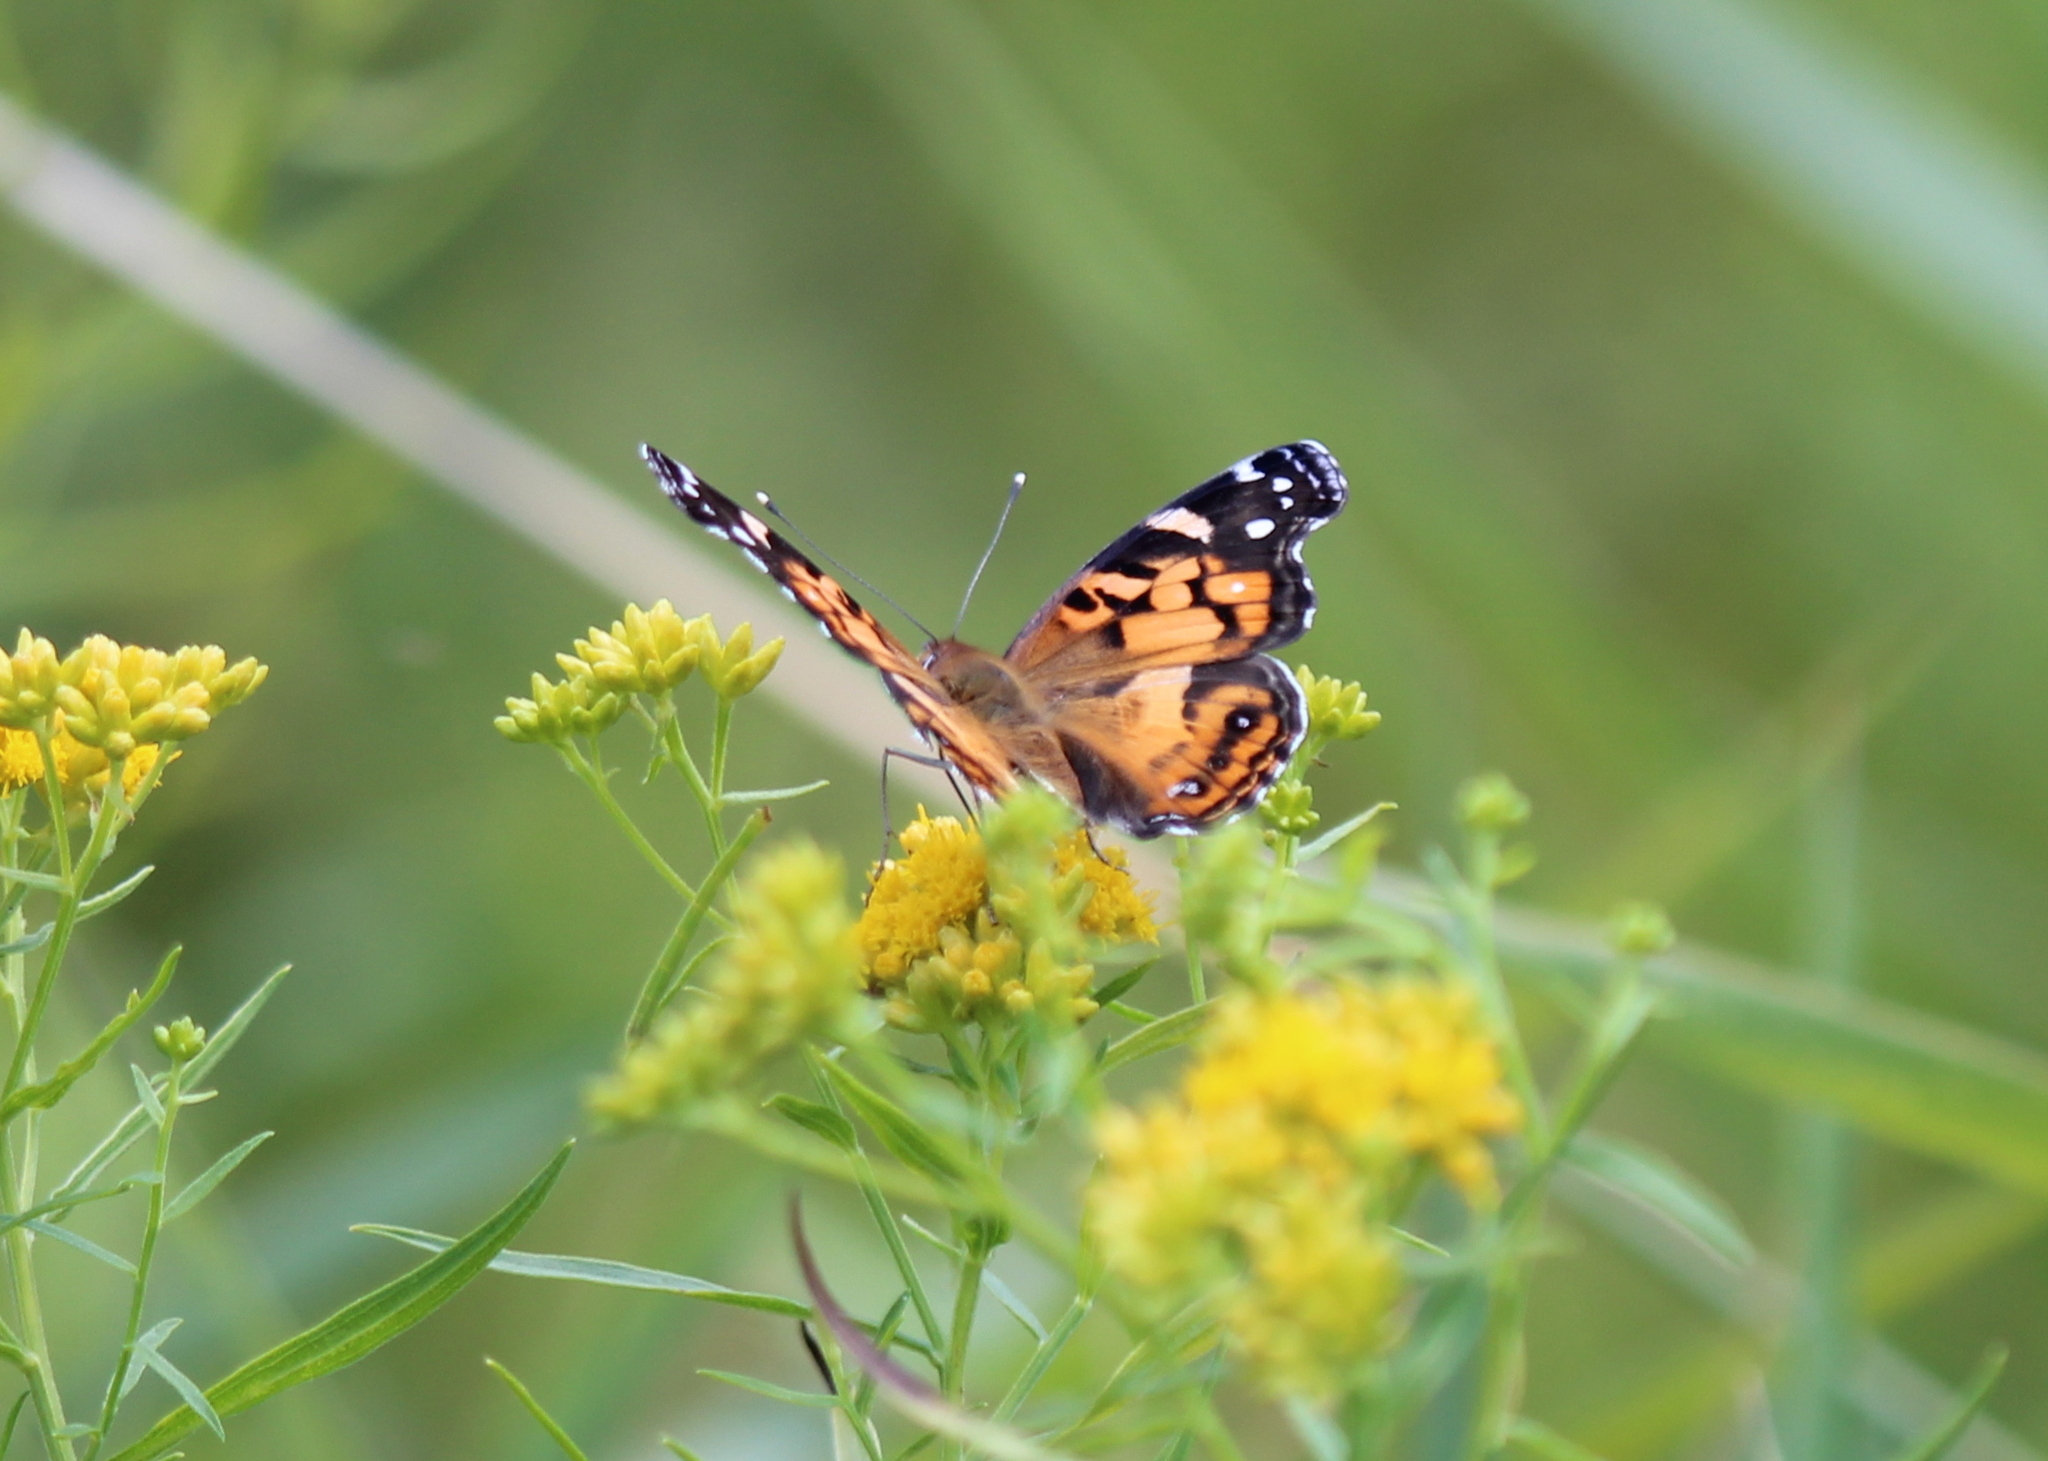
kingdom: Animalia
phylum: Arthropoda
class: Insecta
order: Lepidoptera
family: Nymphalidae
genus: Vanessa
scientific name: Vanessa virginiensis
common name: American lady
